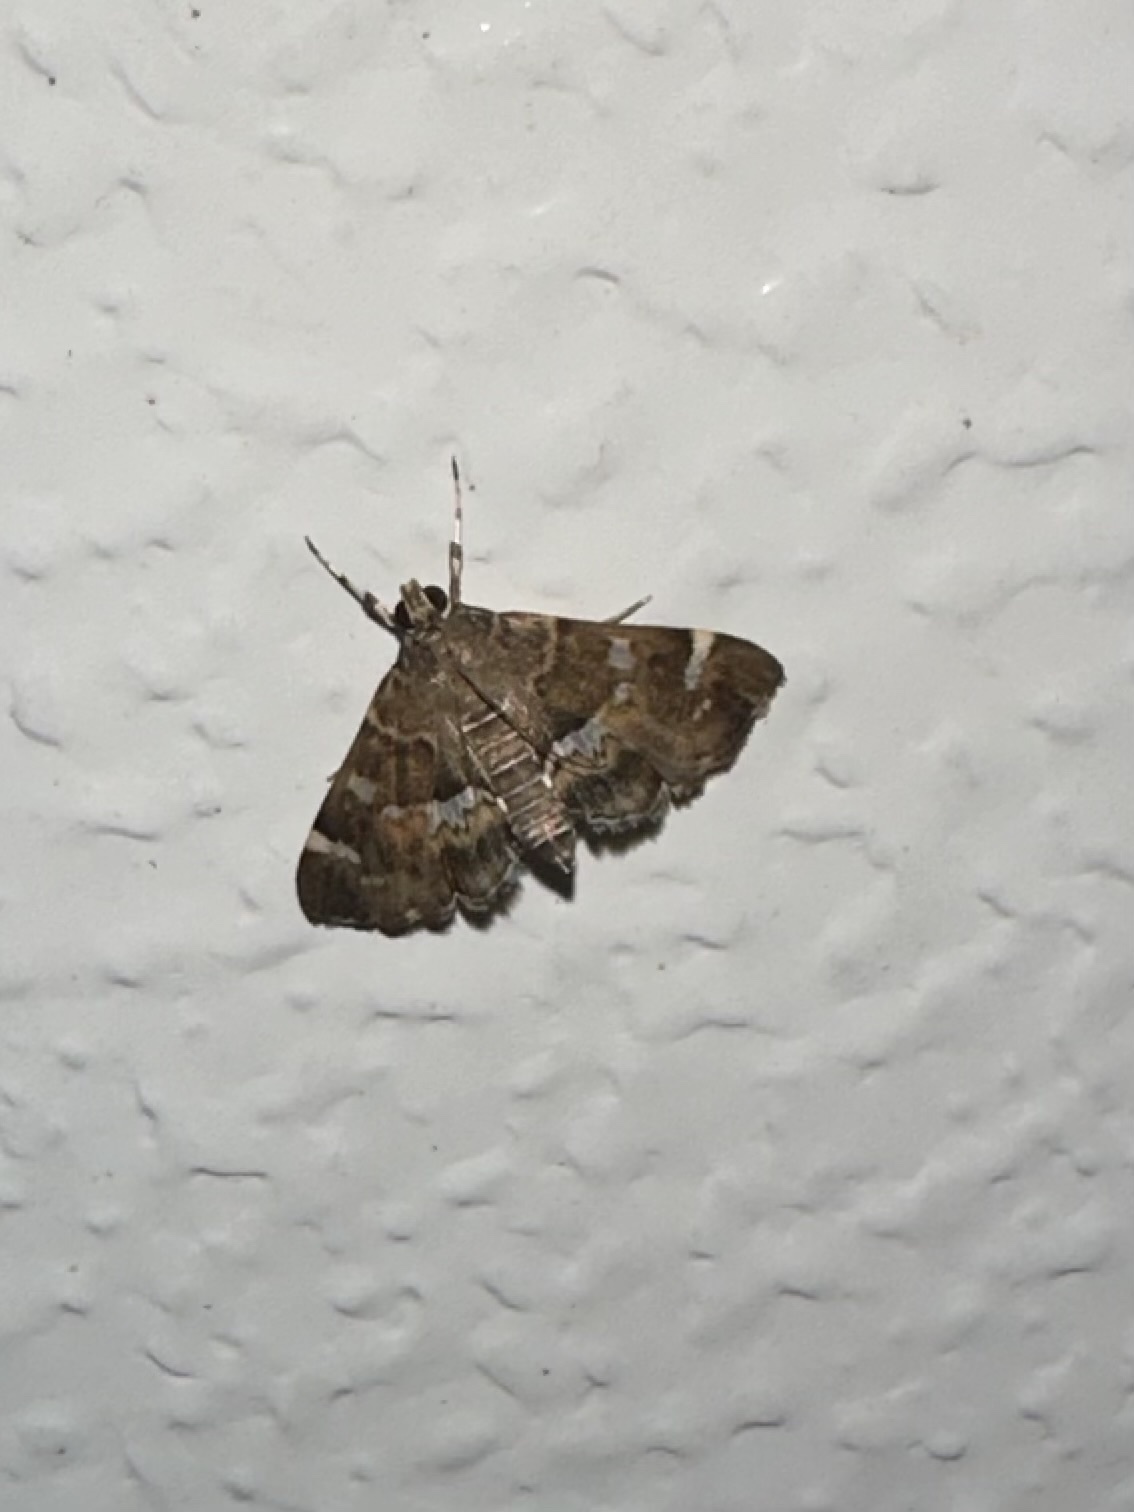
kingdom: Animalia
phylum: Arthropoda
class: Insecta
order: Lepidoptera
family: Crambidae
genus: Hymenia
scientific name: Hymenia perspectalis
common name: Spotted beet webworm
